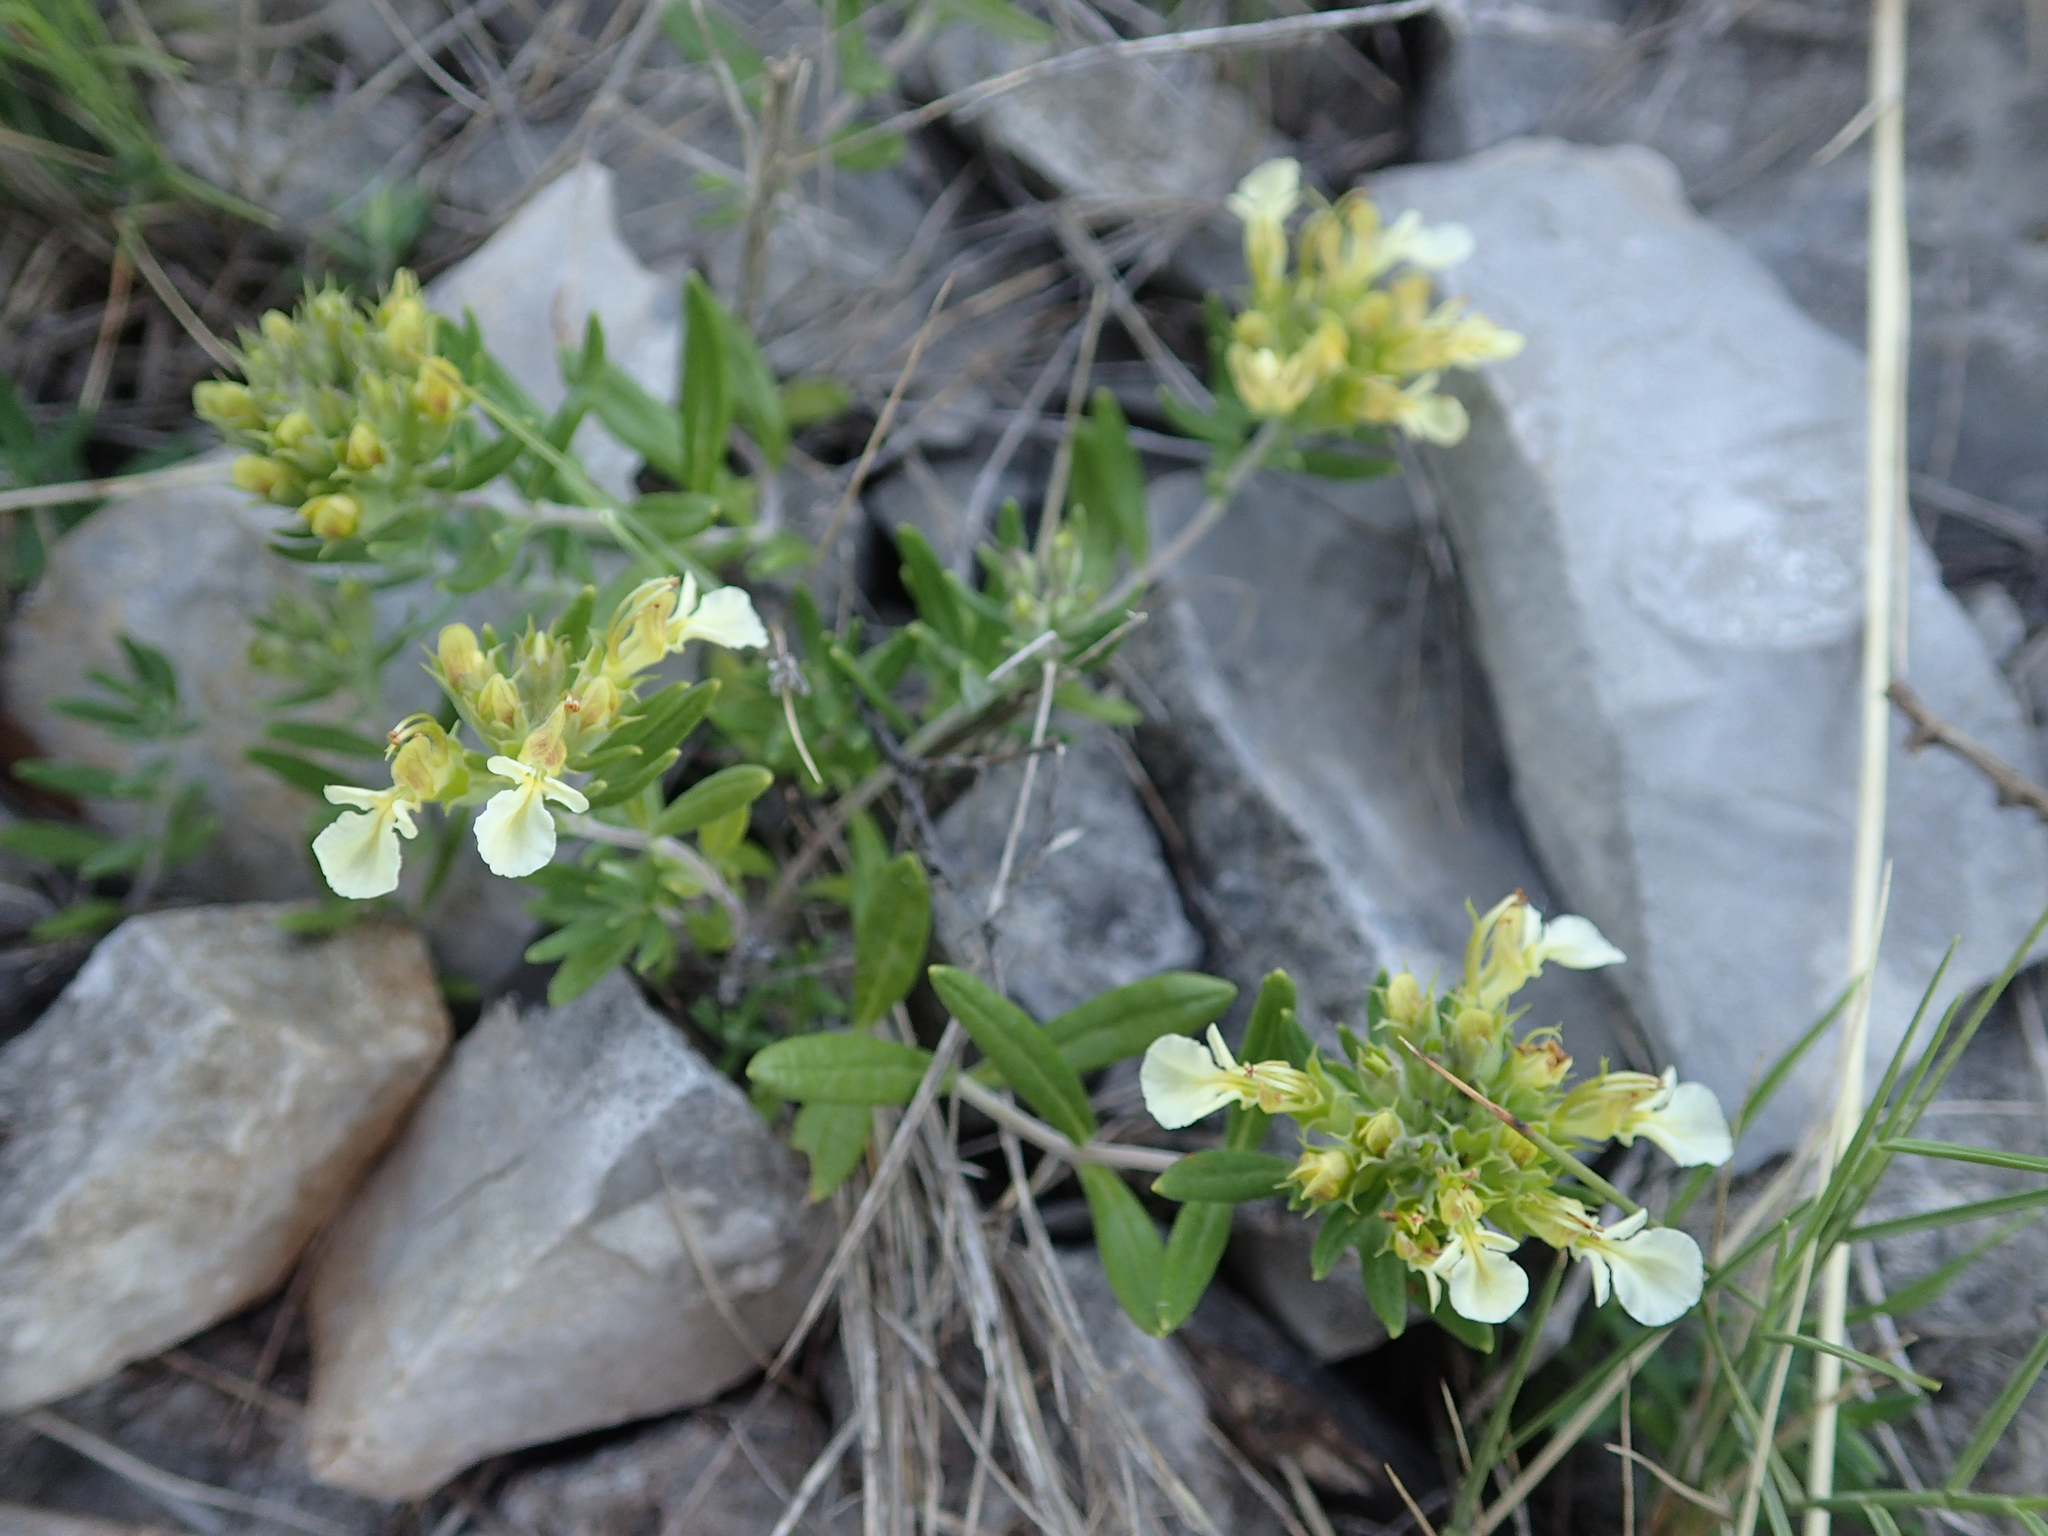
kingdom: Plantae
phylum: Tracheophyta
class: Magnoliopsida
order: Lamiales
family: Lamiaceae
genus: Teucrium
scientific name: Teucrium montanum
